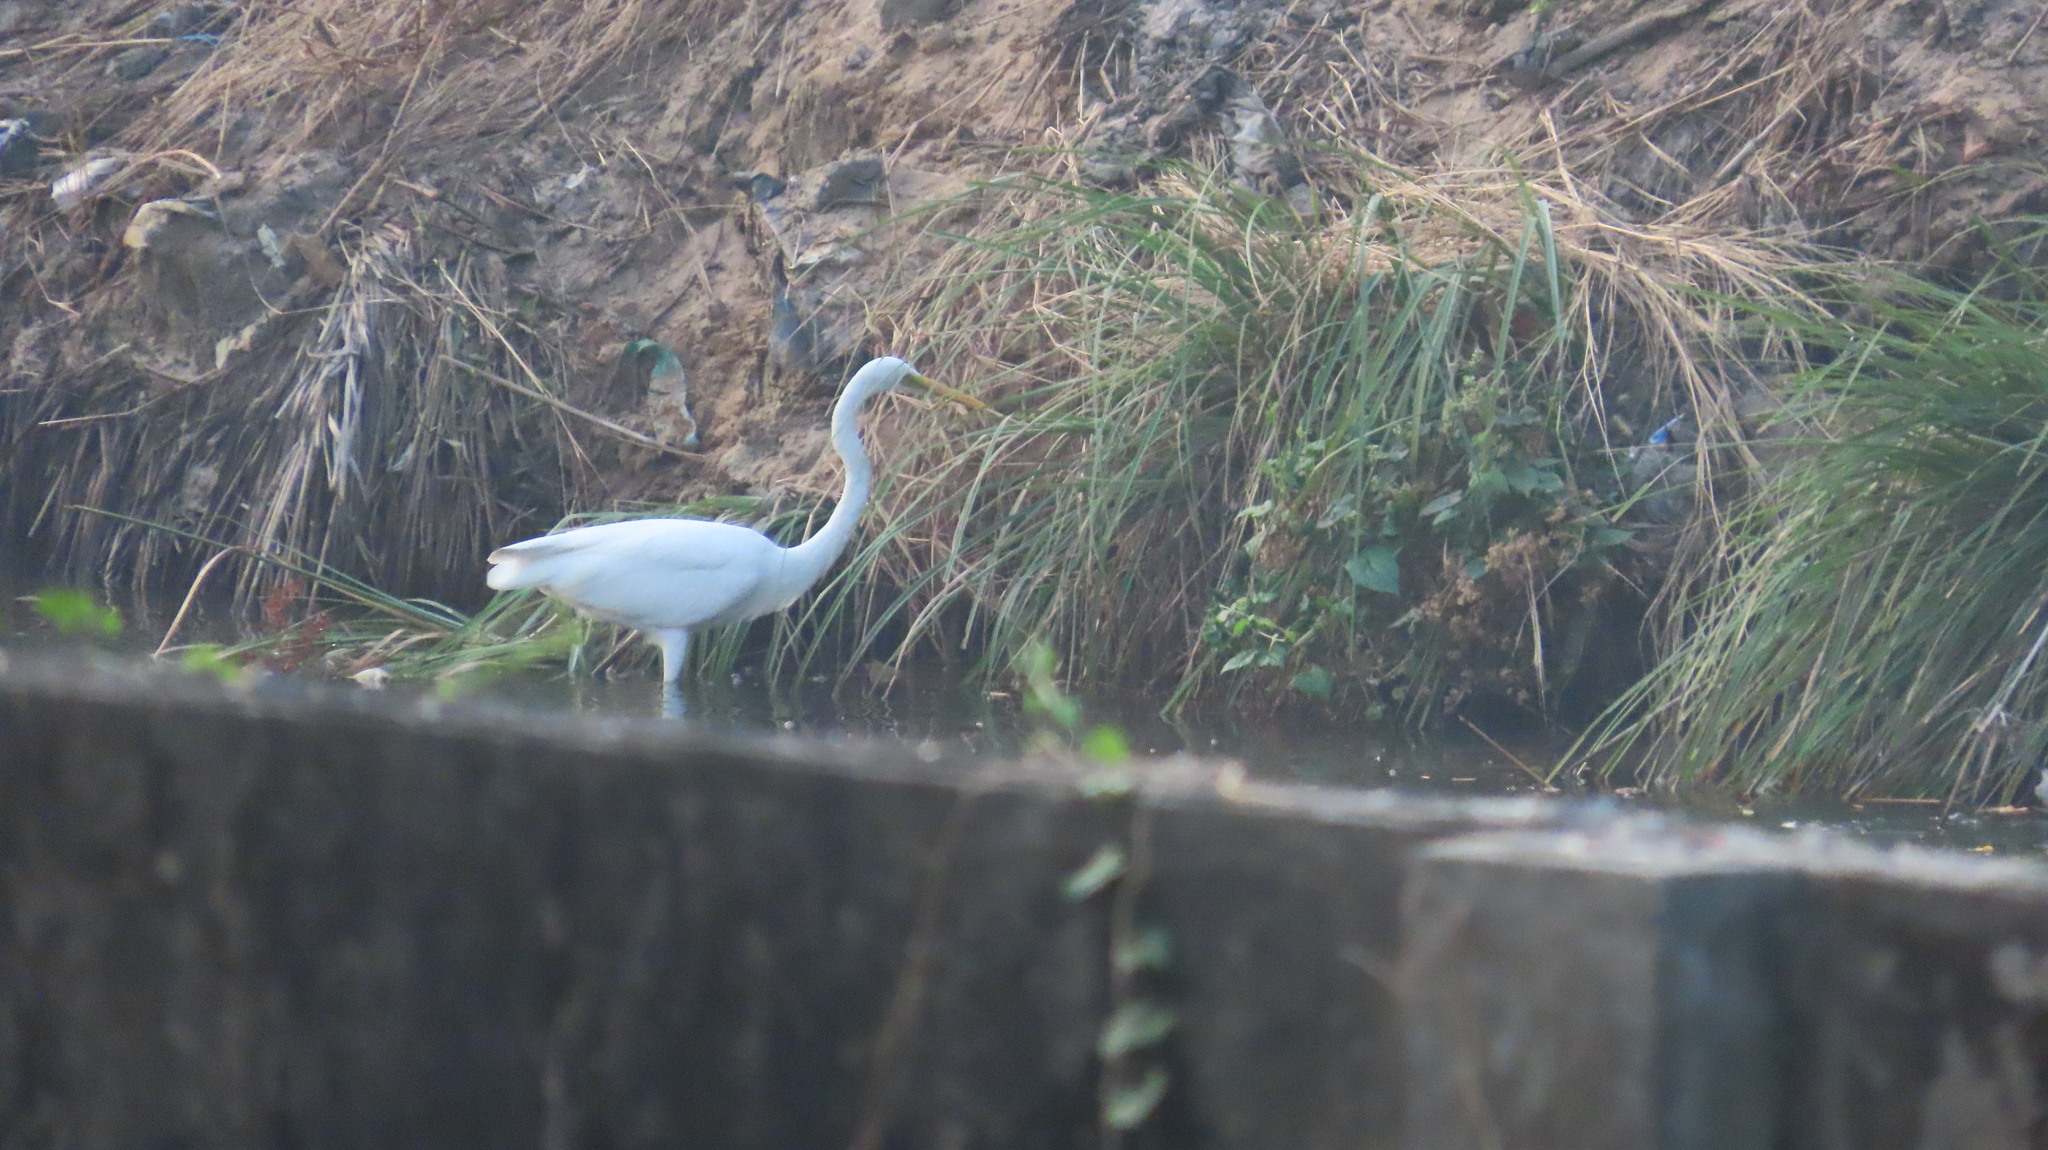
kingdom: Animalia
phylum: Chordata
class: Aves
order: Pelecaniformes
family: Ardeidae
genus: Ardea
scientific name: Ardea alba
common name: Great egret
